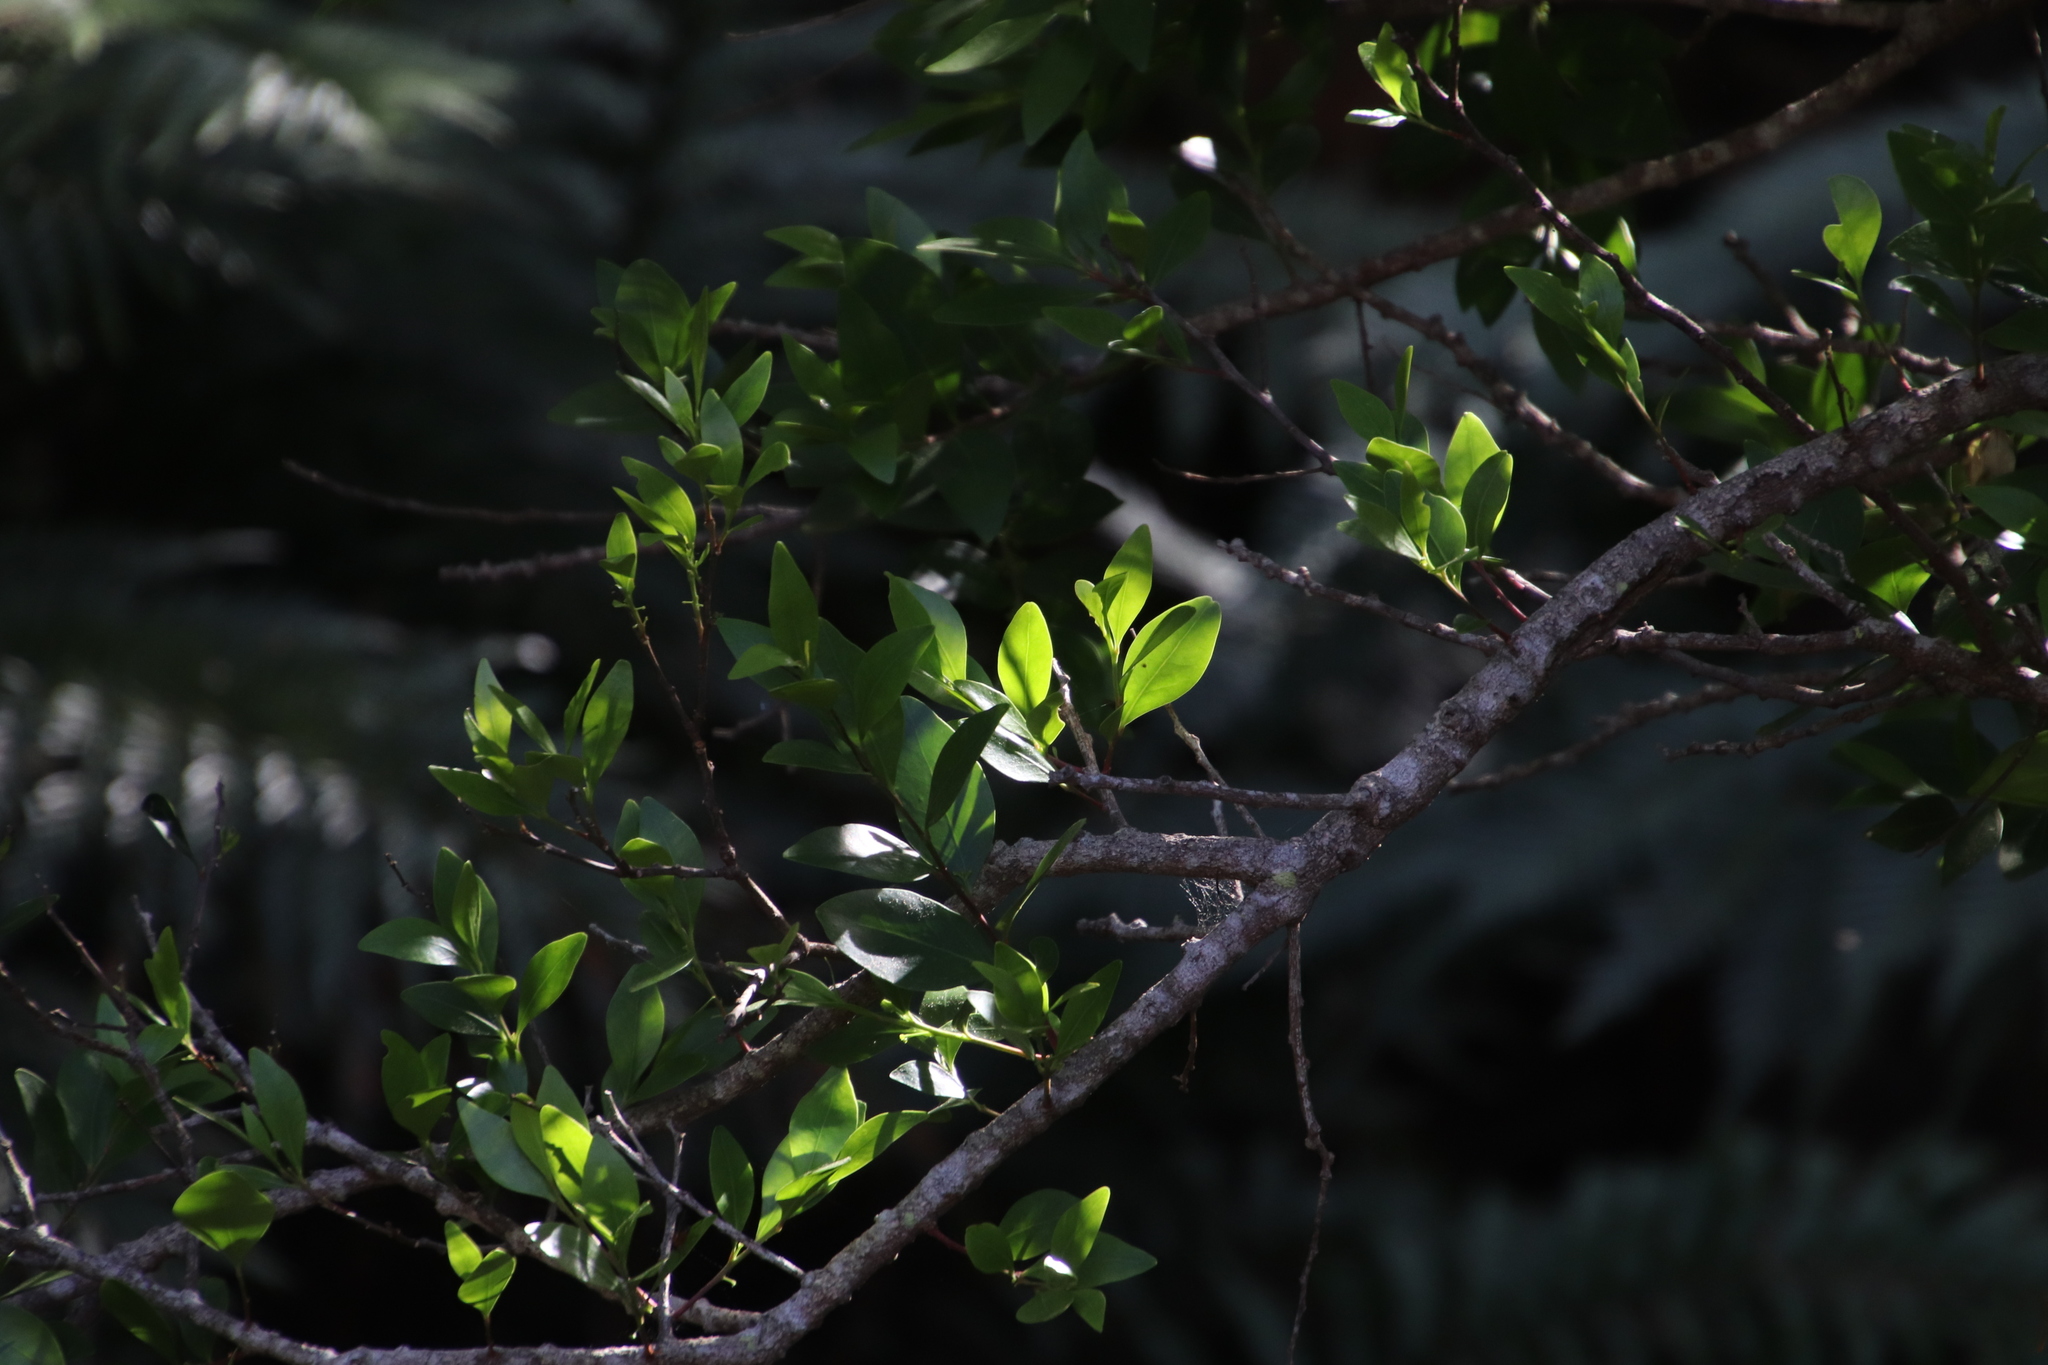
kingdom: Plantae
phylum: Tracheophyta
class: Magnoliopsida
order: Celastrales
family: Celastraceae
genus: Gymnosporia
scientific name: Gymnosporia laurina
